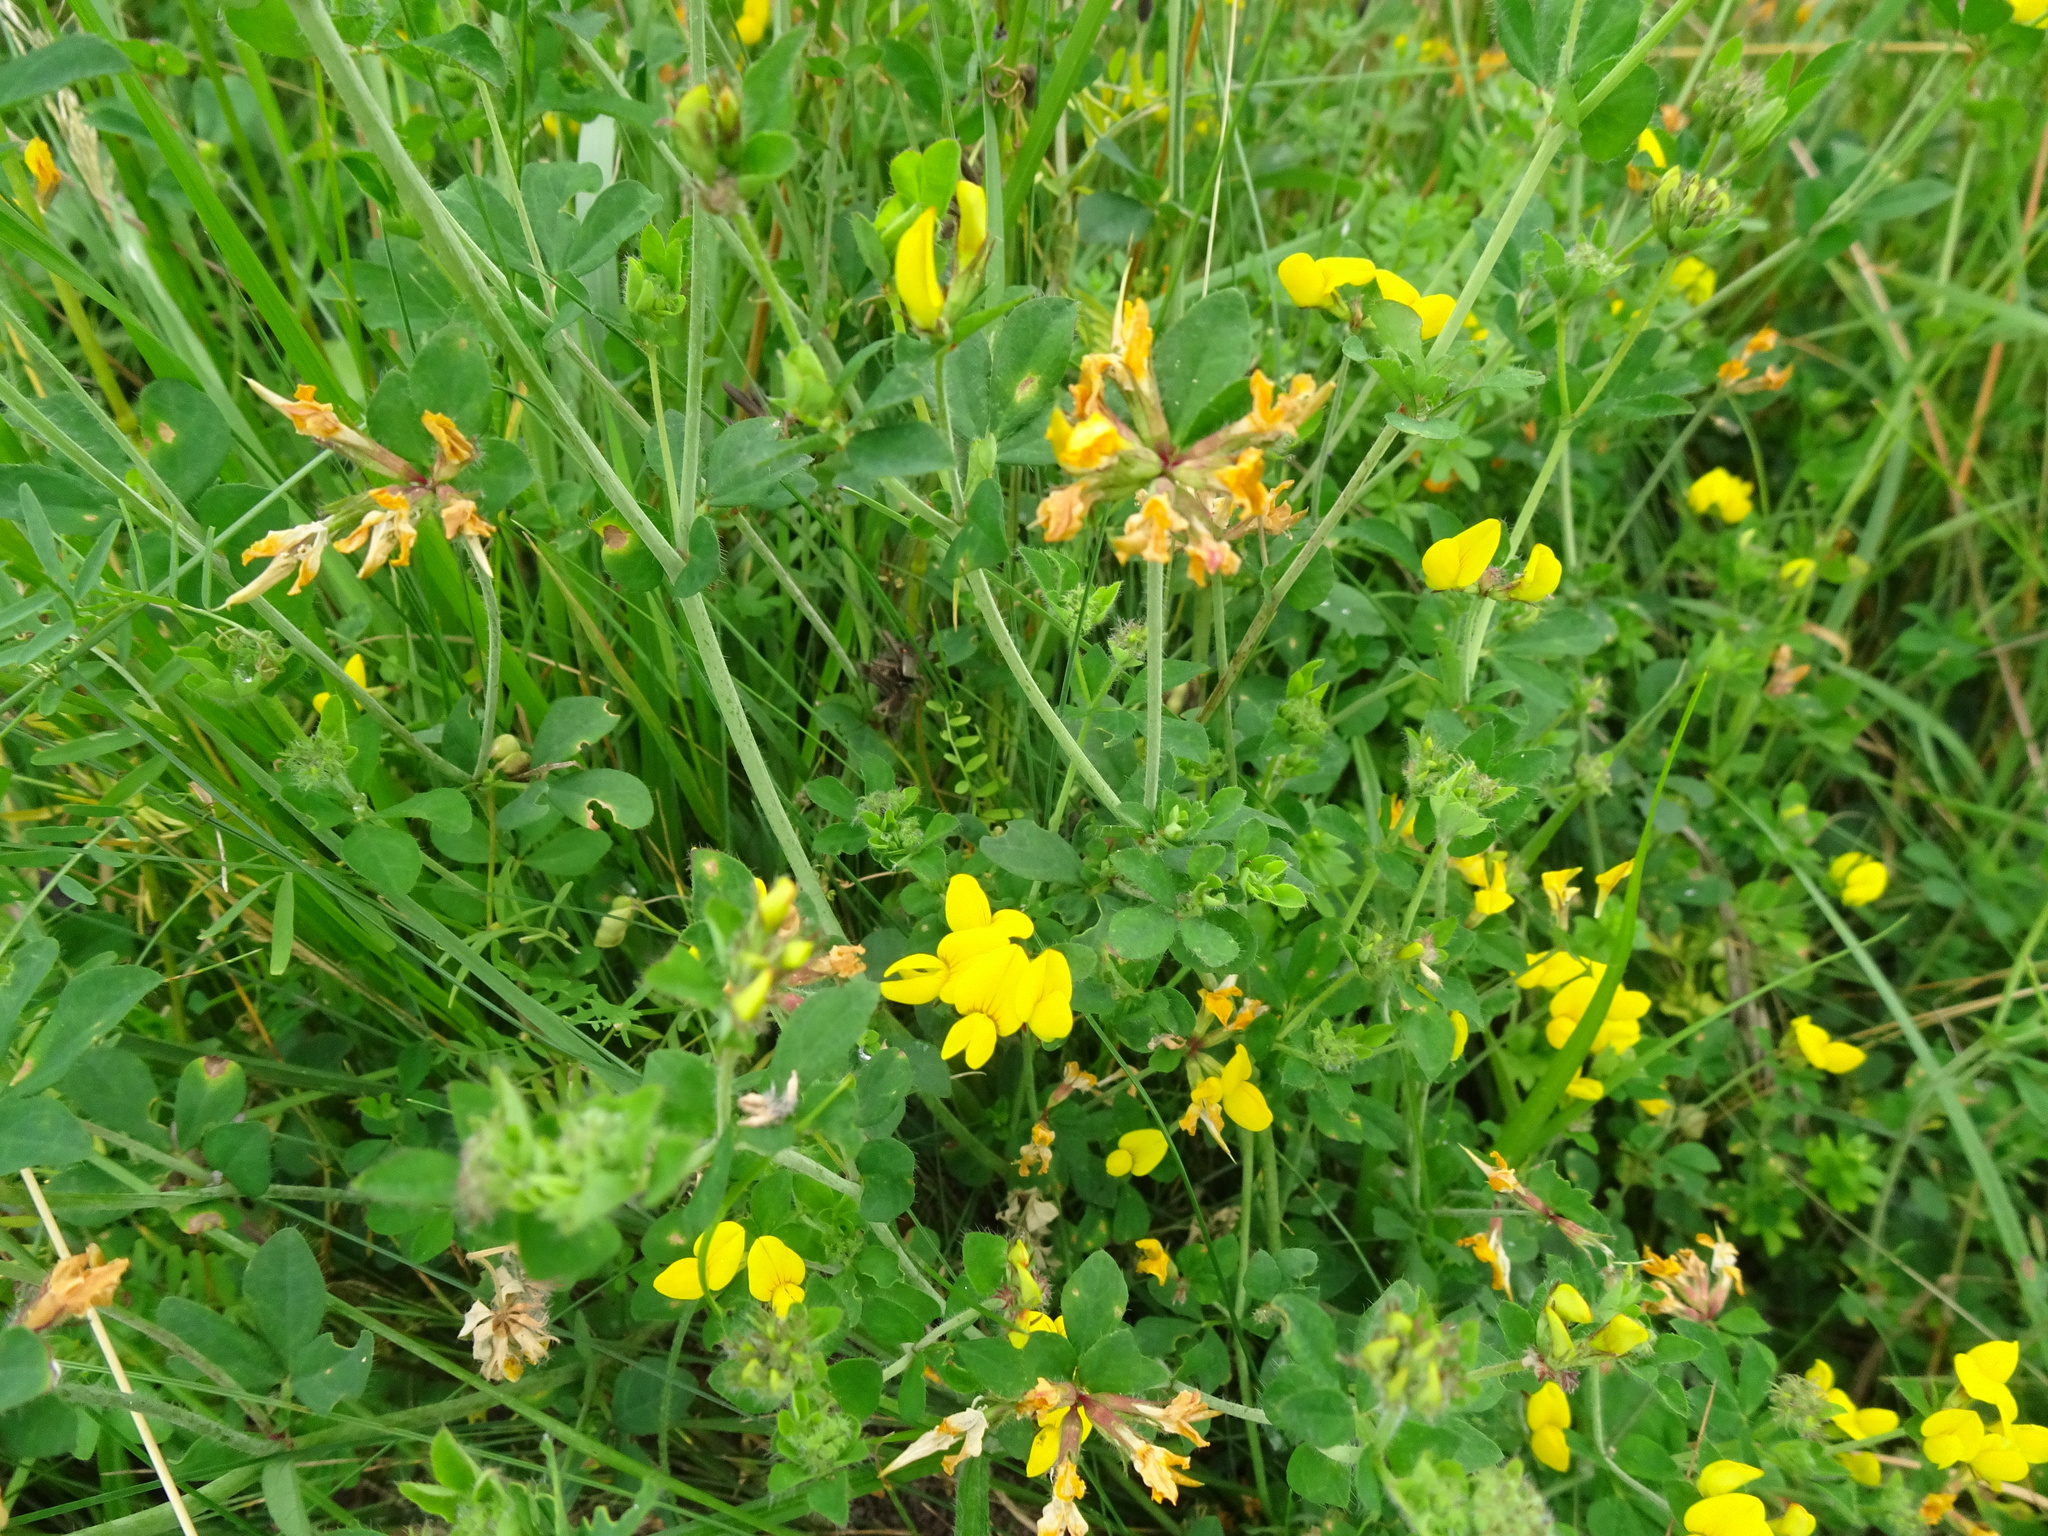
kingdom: Plantae
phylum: Tracheophyta
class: Magnoliopsida
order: Fabales
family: Fabaceae
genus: Lotus
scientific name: Lotus corniculatus
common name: Common bird's-foot-trefoil
